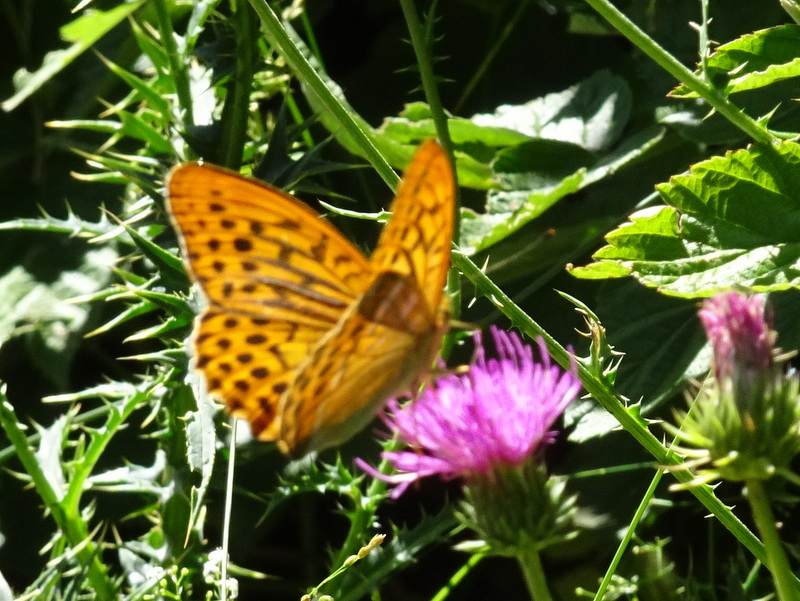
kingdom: Animalia
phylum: Arthropoda
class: Insecta
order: Lepidoptera
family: Nymphalidae
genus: Argynnis
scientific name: Argynnis paphia
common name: Silver-washed fritillary
